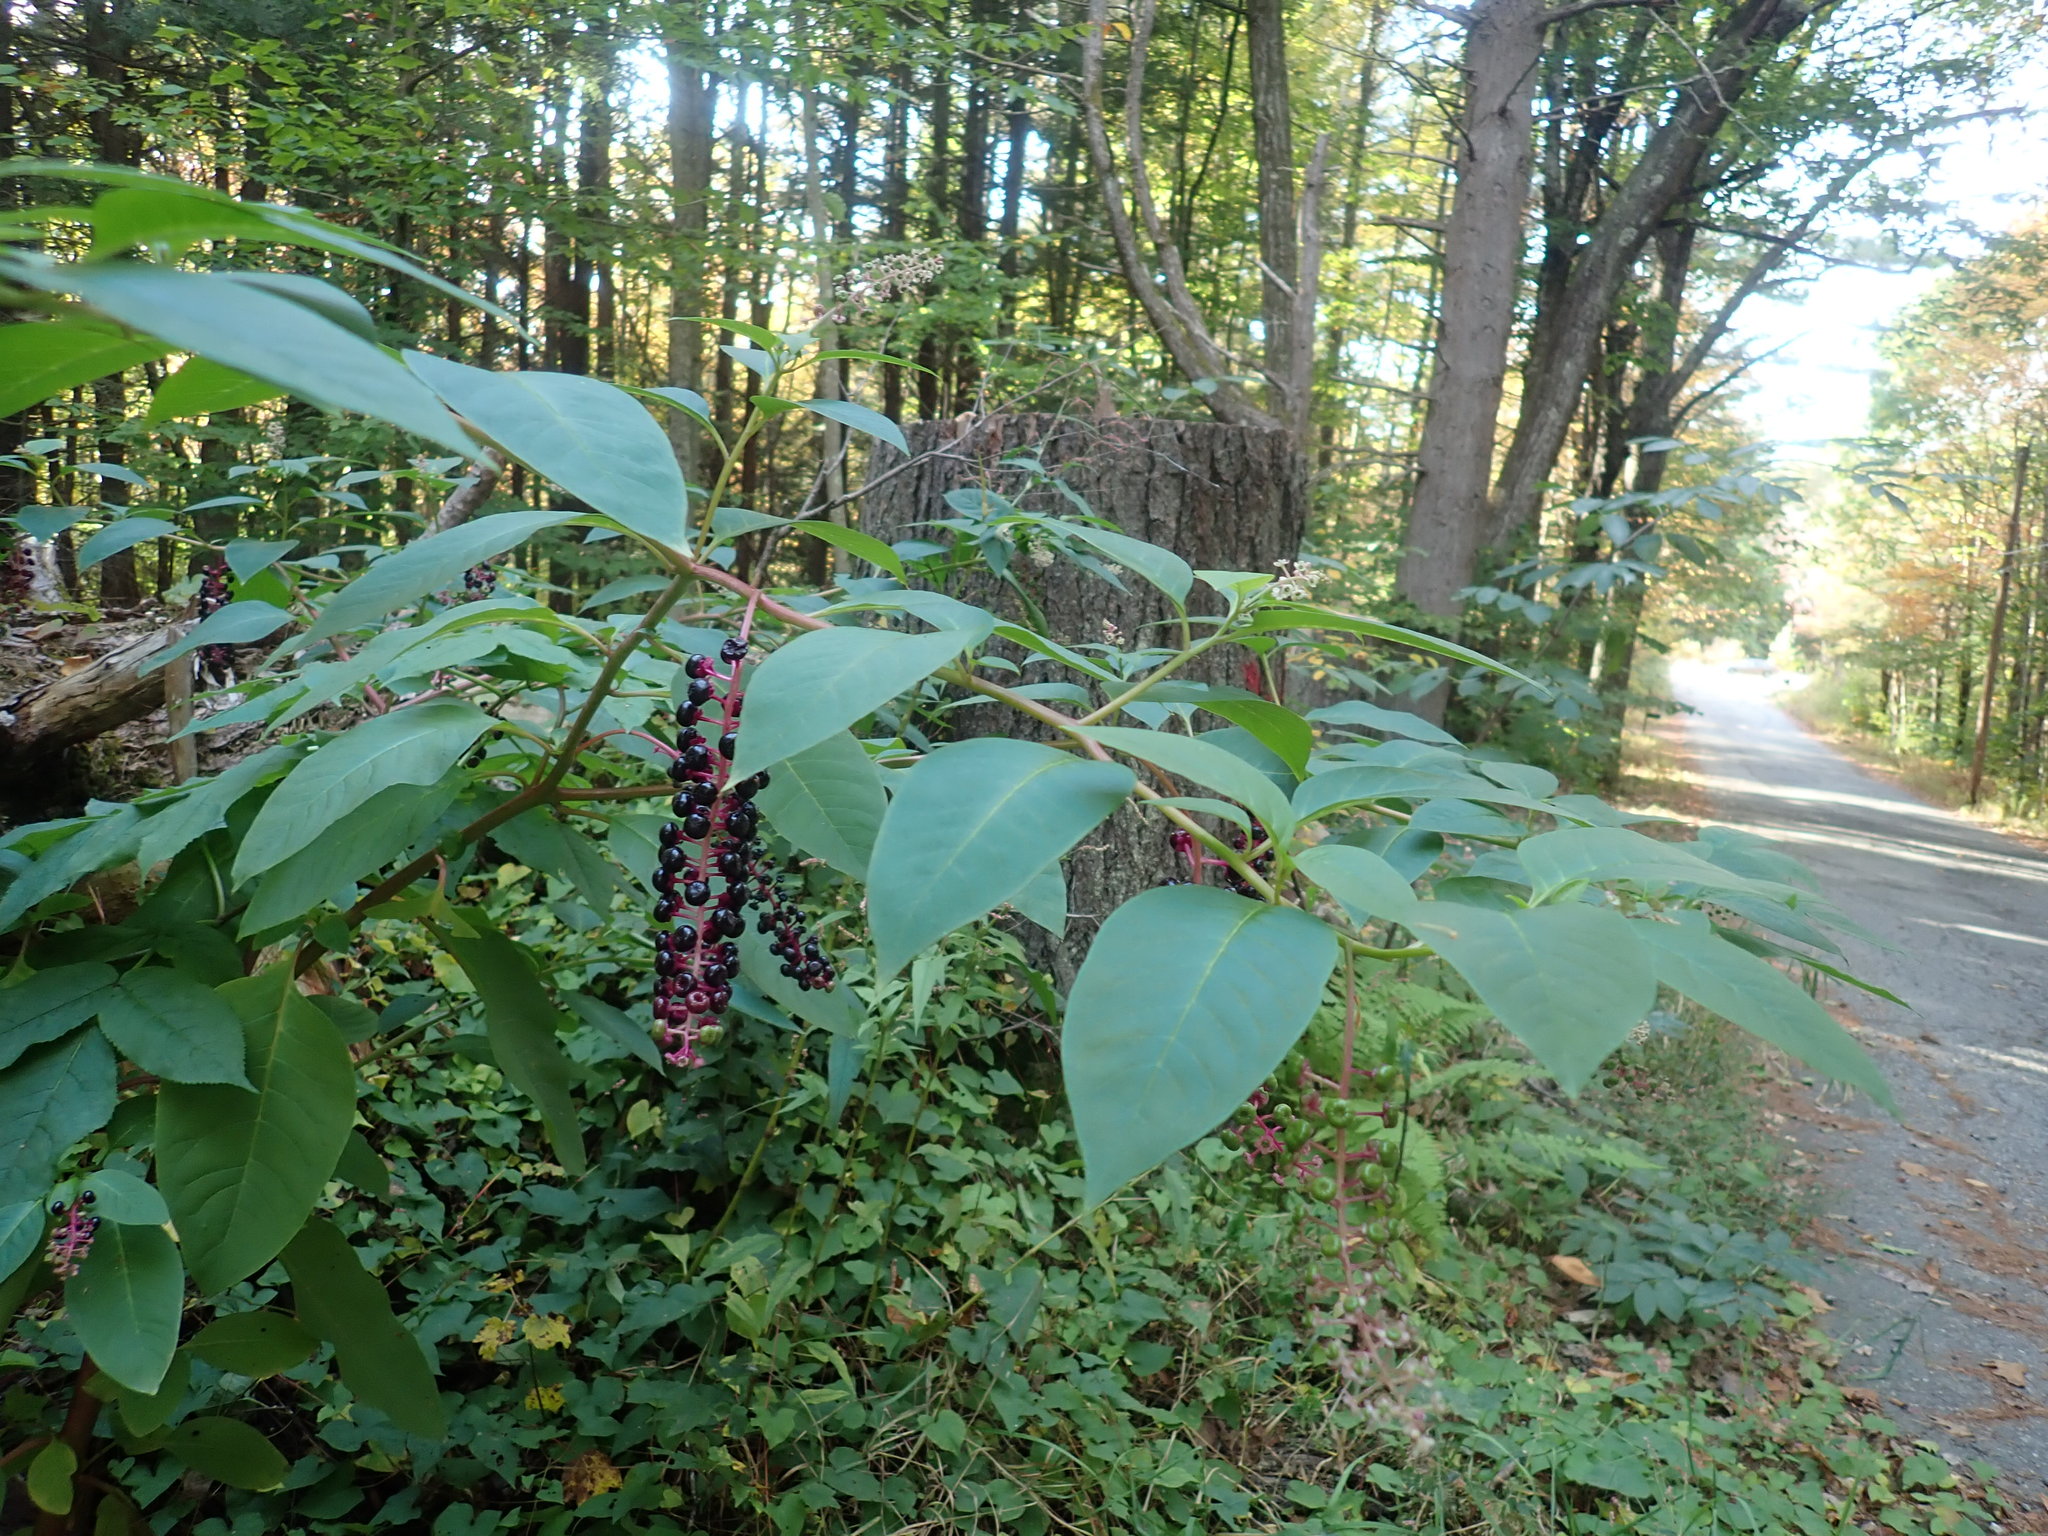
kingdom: Plantae
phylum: Tracheophyta
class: Magnoliopsida
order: Caryophyllales
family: Phytolaccaceae
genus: Phytolacca
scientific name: Phytolacca americana
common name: American pokeweed
